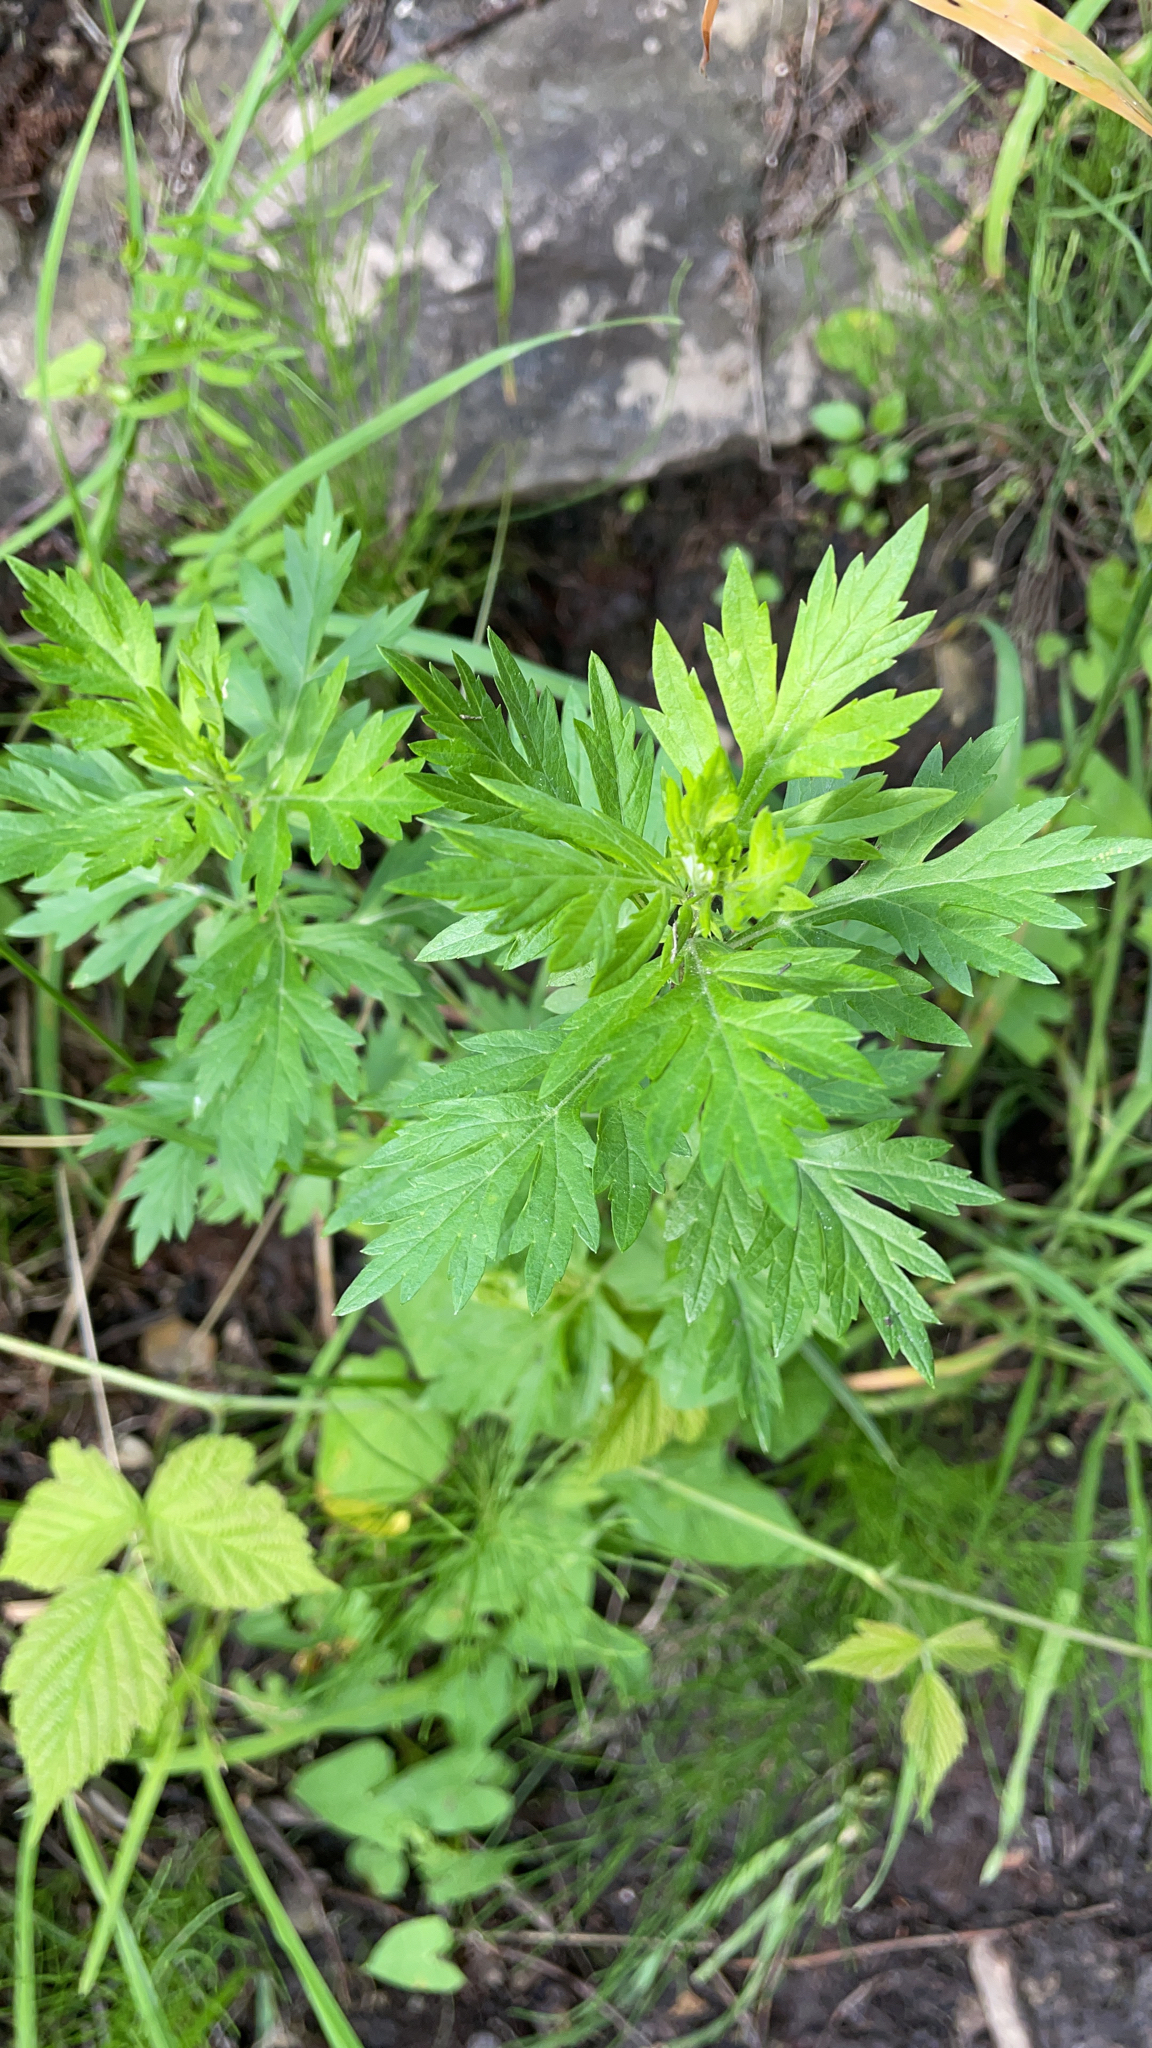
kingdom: Plantae
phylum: Tracheophyta
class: Magnoliopsida
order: Asterales
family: Asteraceae
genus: Artemisia
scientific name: Artemisia vulgaris
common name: Mugwort
